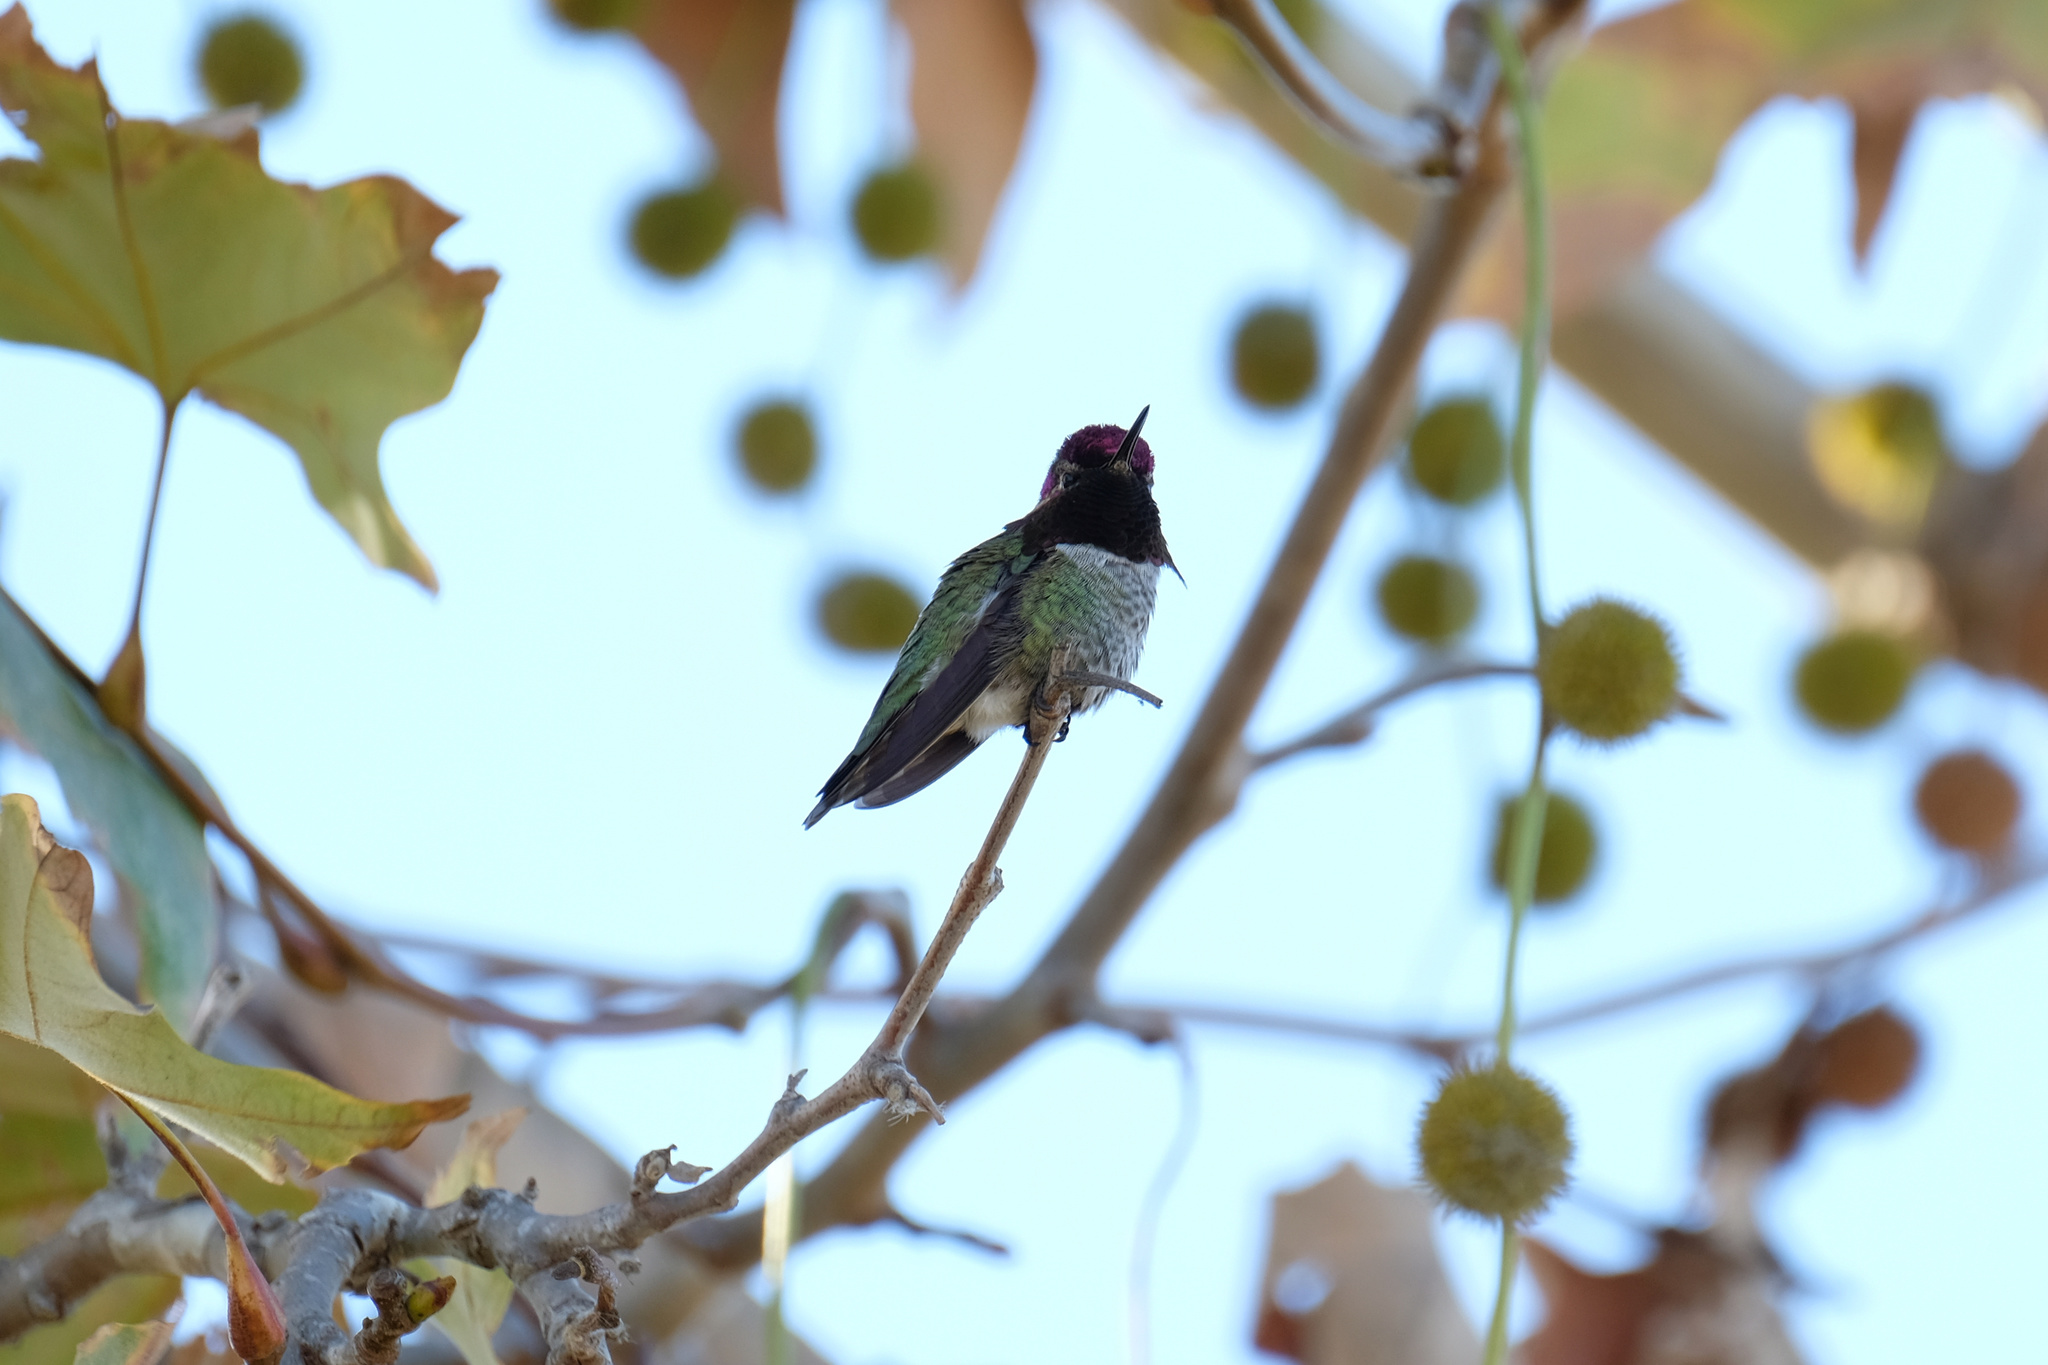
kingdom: Animalia
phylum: Chordata
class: Aves
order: Apodiformes
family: Trochilidae
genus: Calypte
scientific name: Calypte anna
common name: Anna's hummingbird
